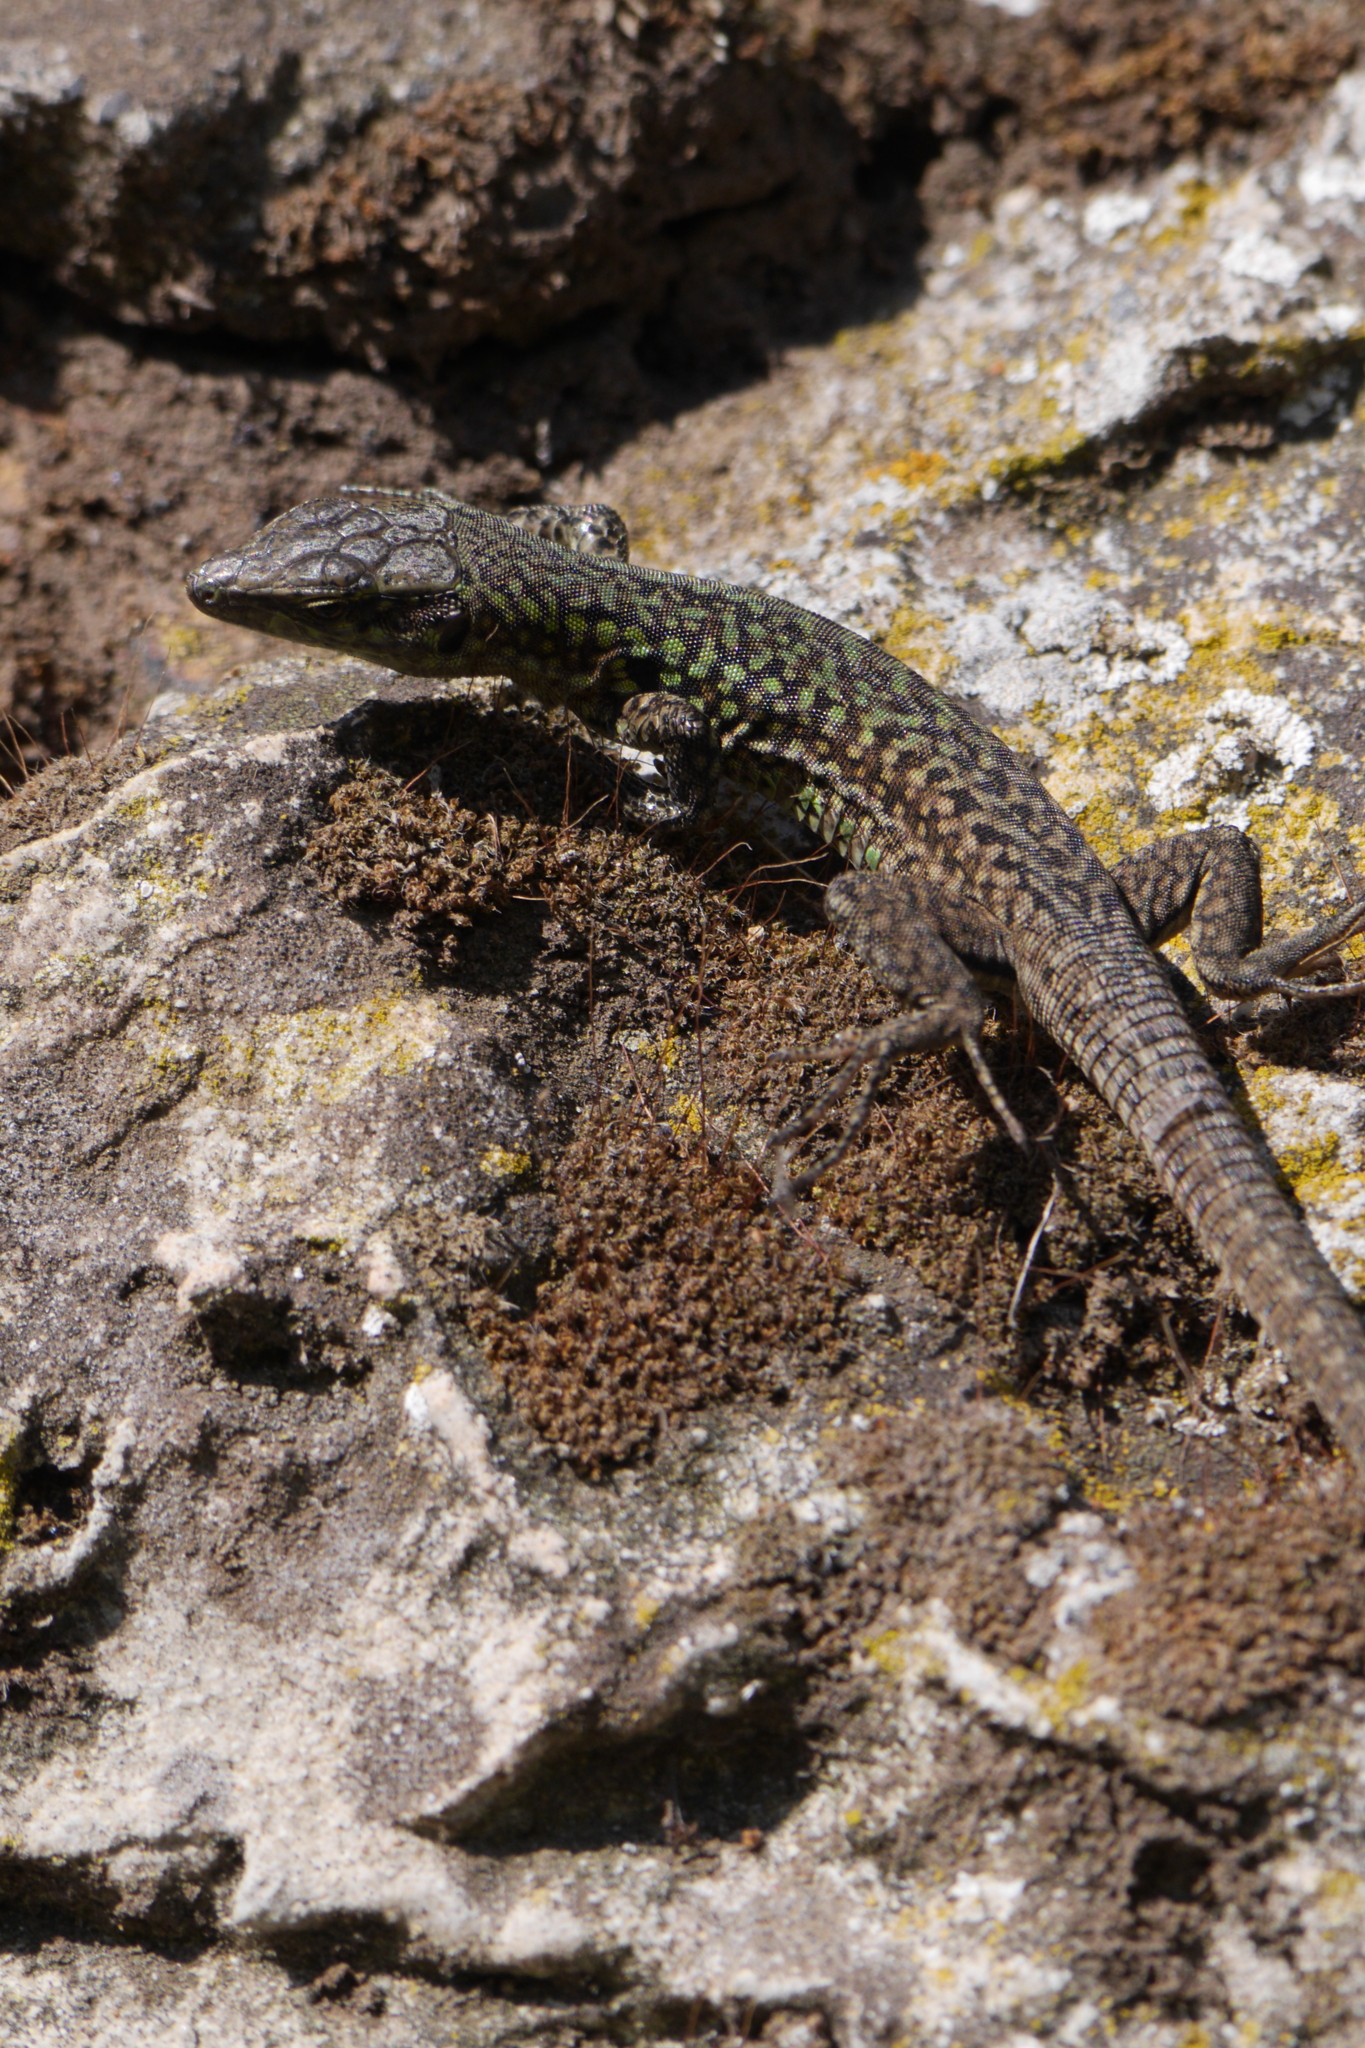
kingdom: Animalia
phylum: Chordata
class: Squamata
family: Lacertidae
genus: Podarcis
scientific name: Podarcis siculus
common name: Italian wall lizard
